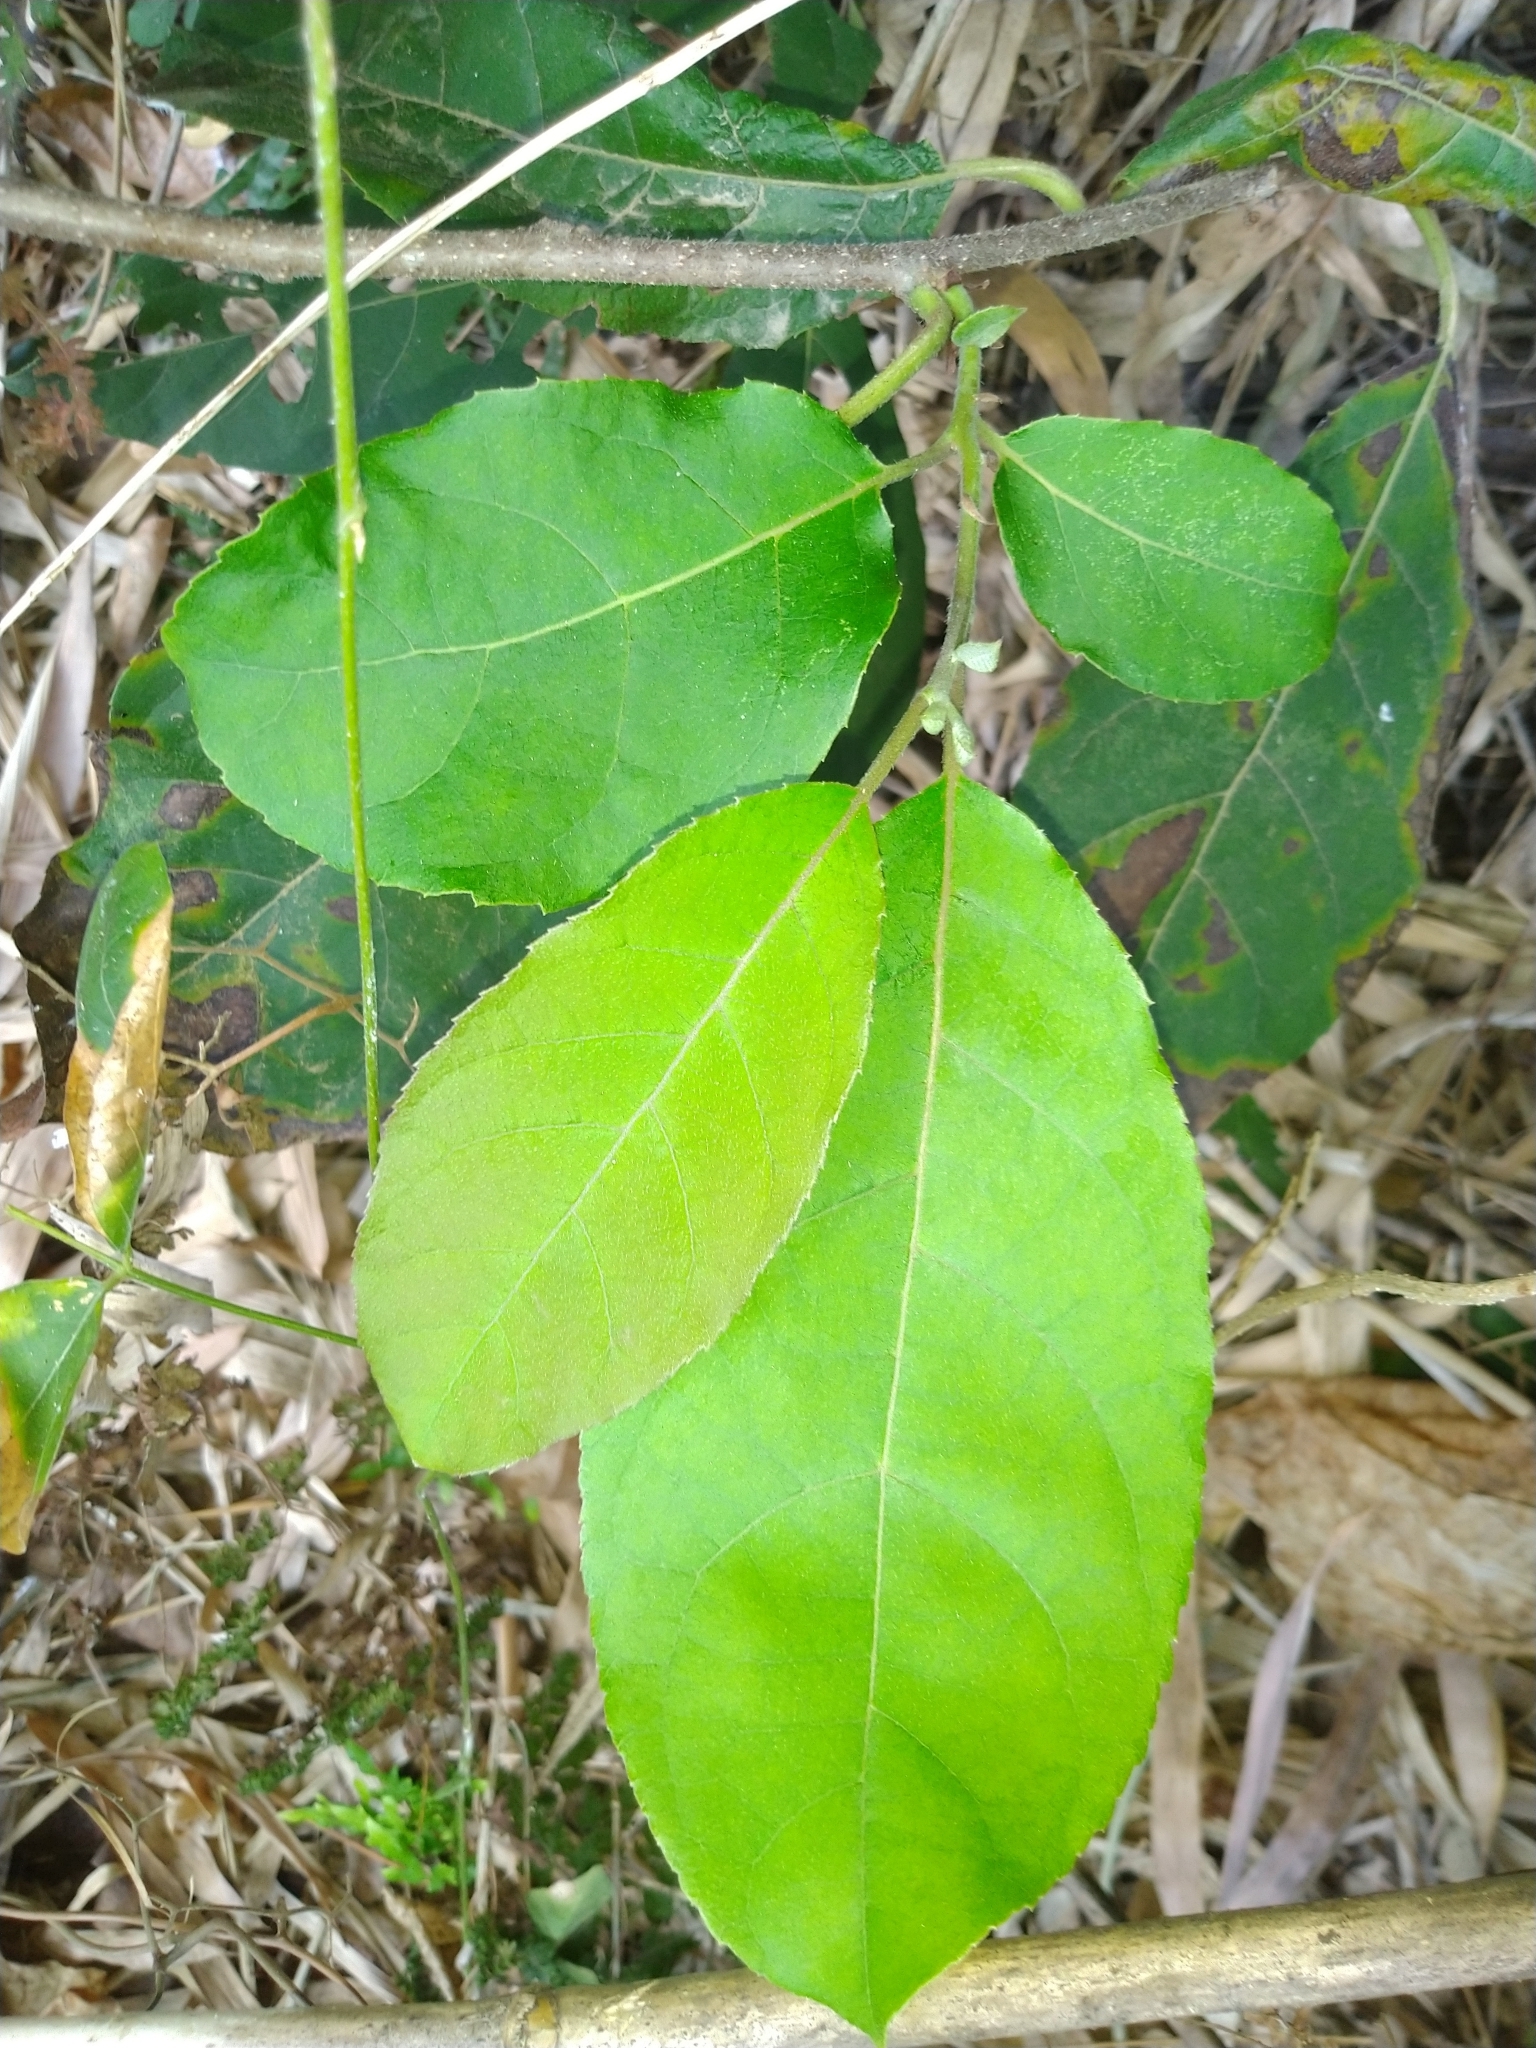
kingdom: Plantae
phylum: Tracheophyta
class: Magnoliopsida
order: Boraginales
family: Ehretiaceae
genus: Ehretia
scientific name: Ehretia acuminata
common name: Kodo wood
